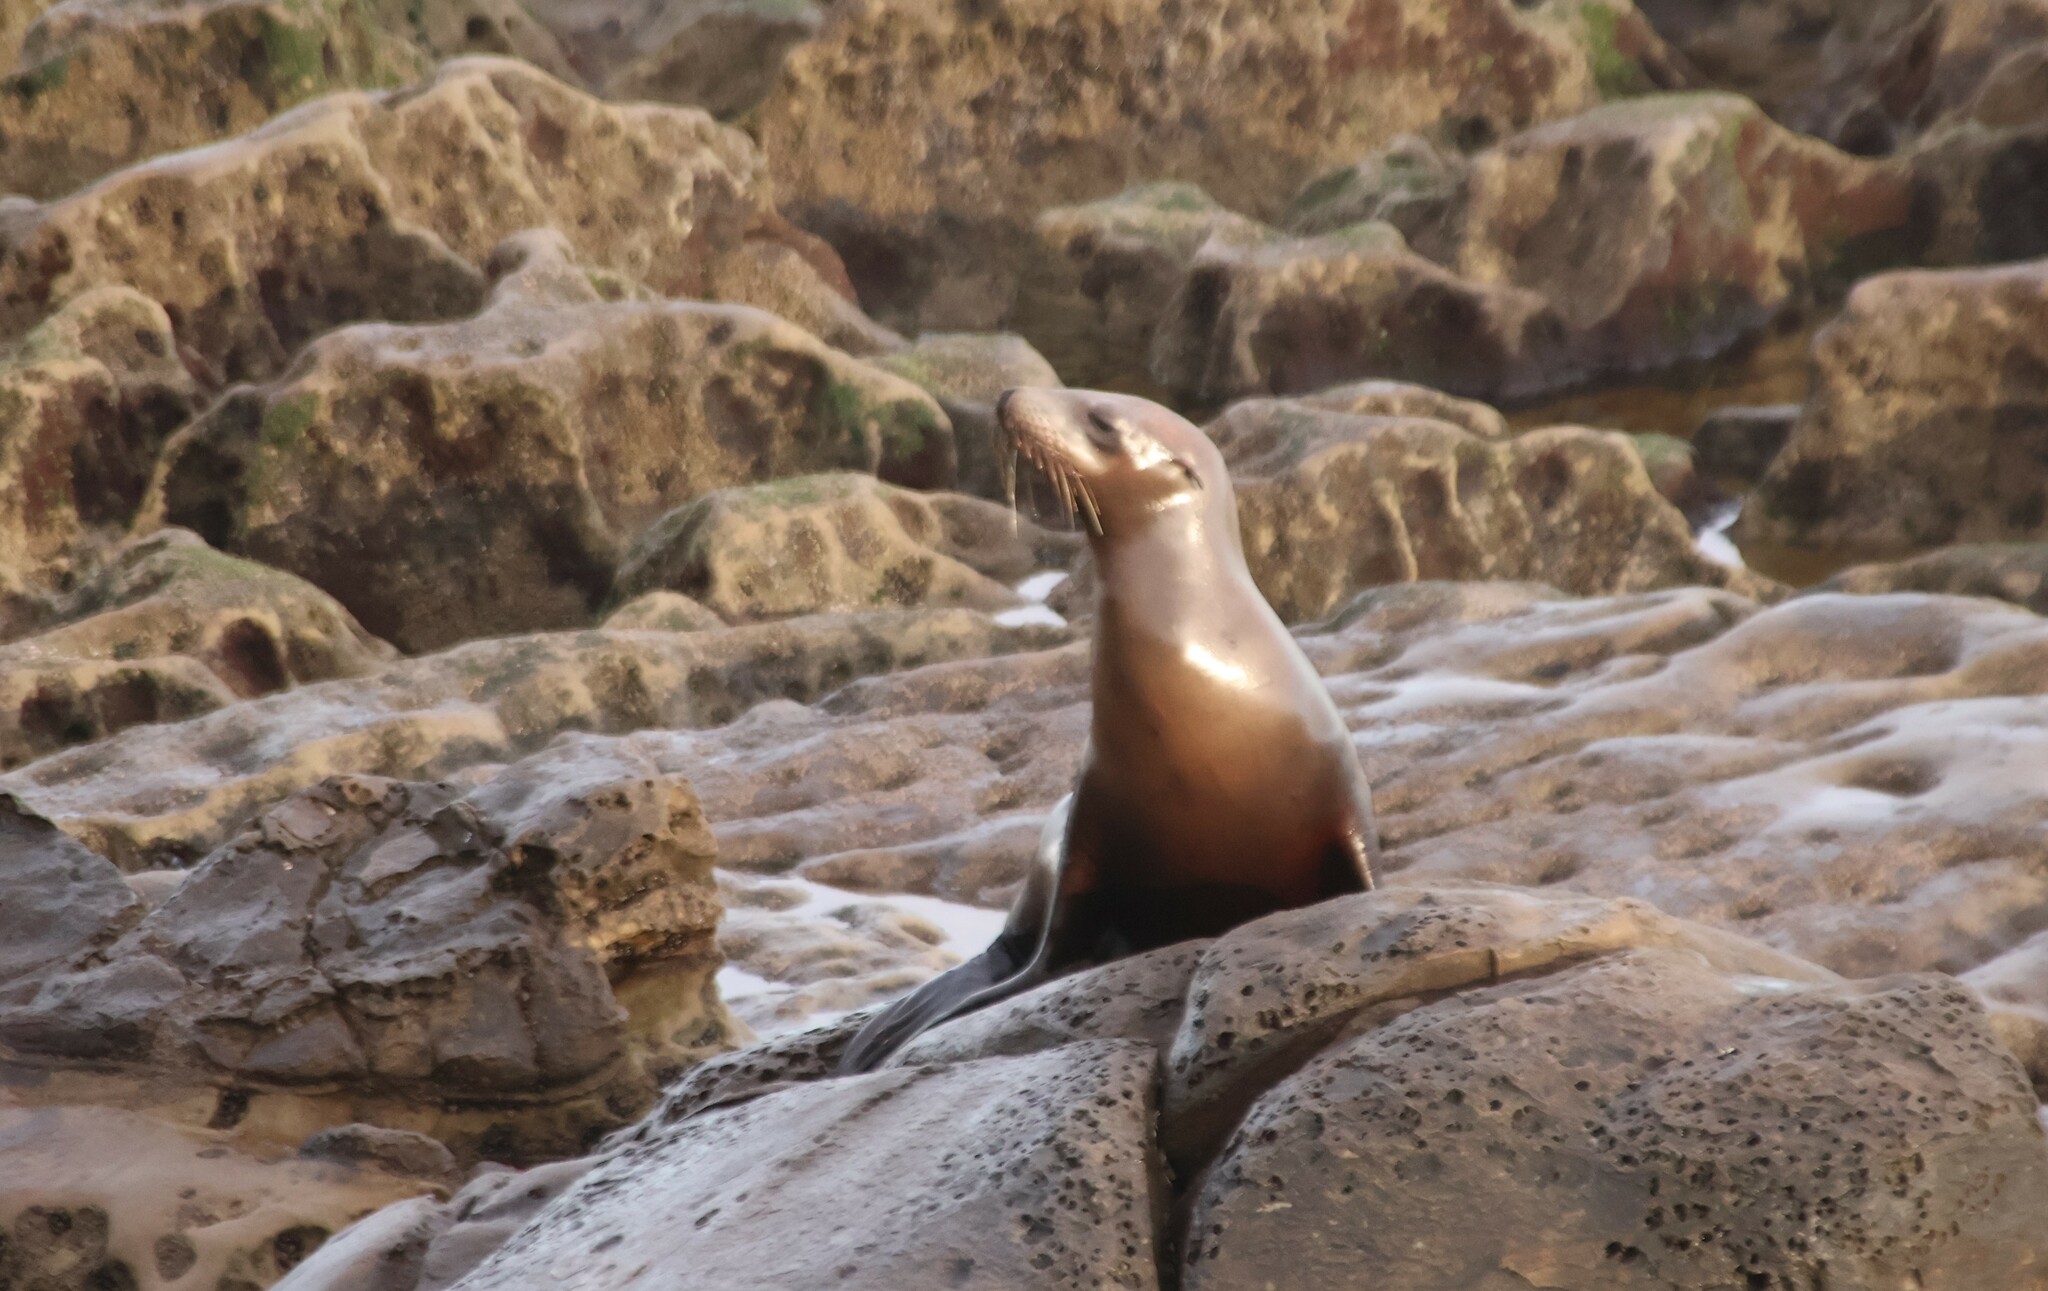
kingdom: Animalia
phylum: Chordata
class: Mammalia
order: Carnivora
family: Otariidae
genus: Zalophus
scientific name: Zalophus californianus
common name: California sea lion
